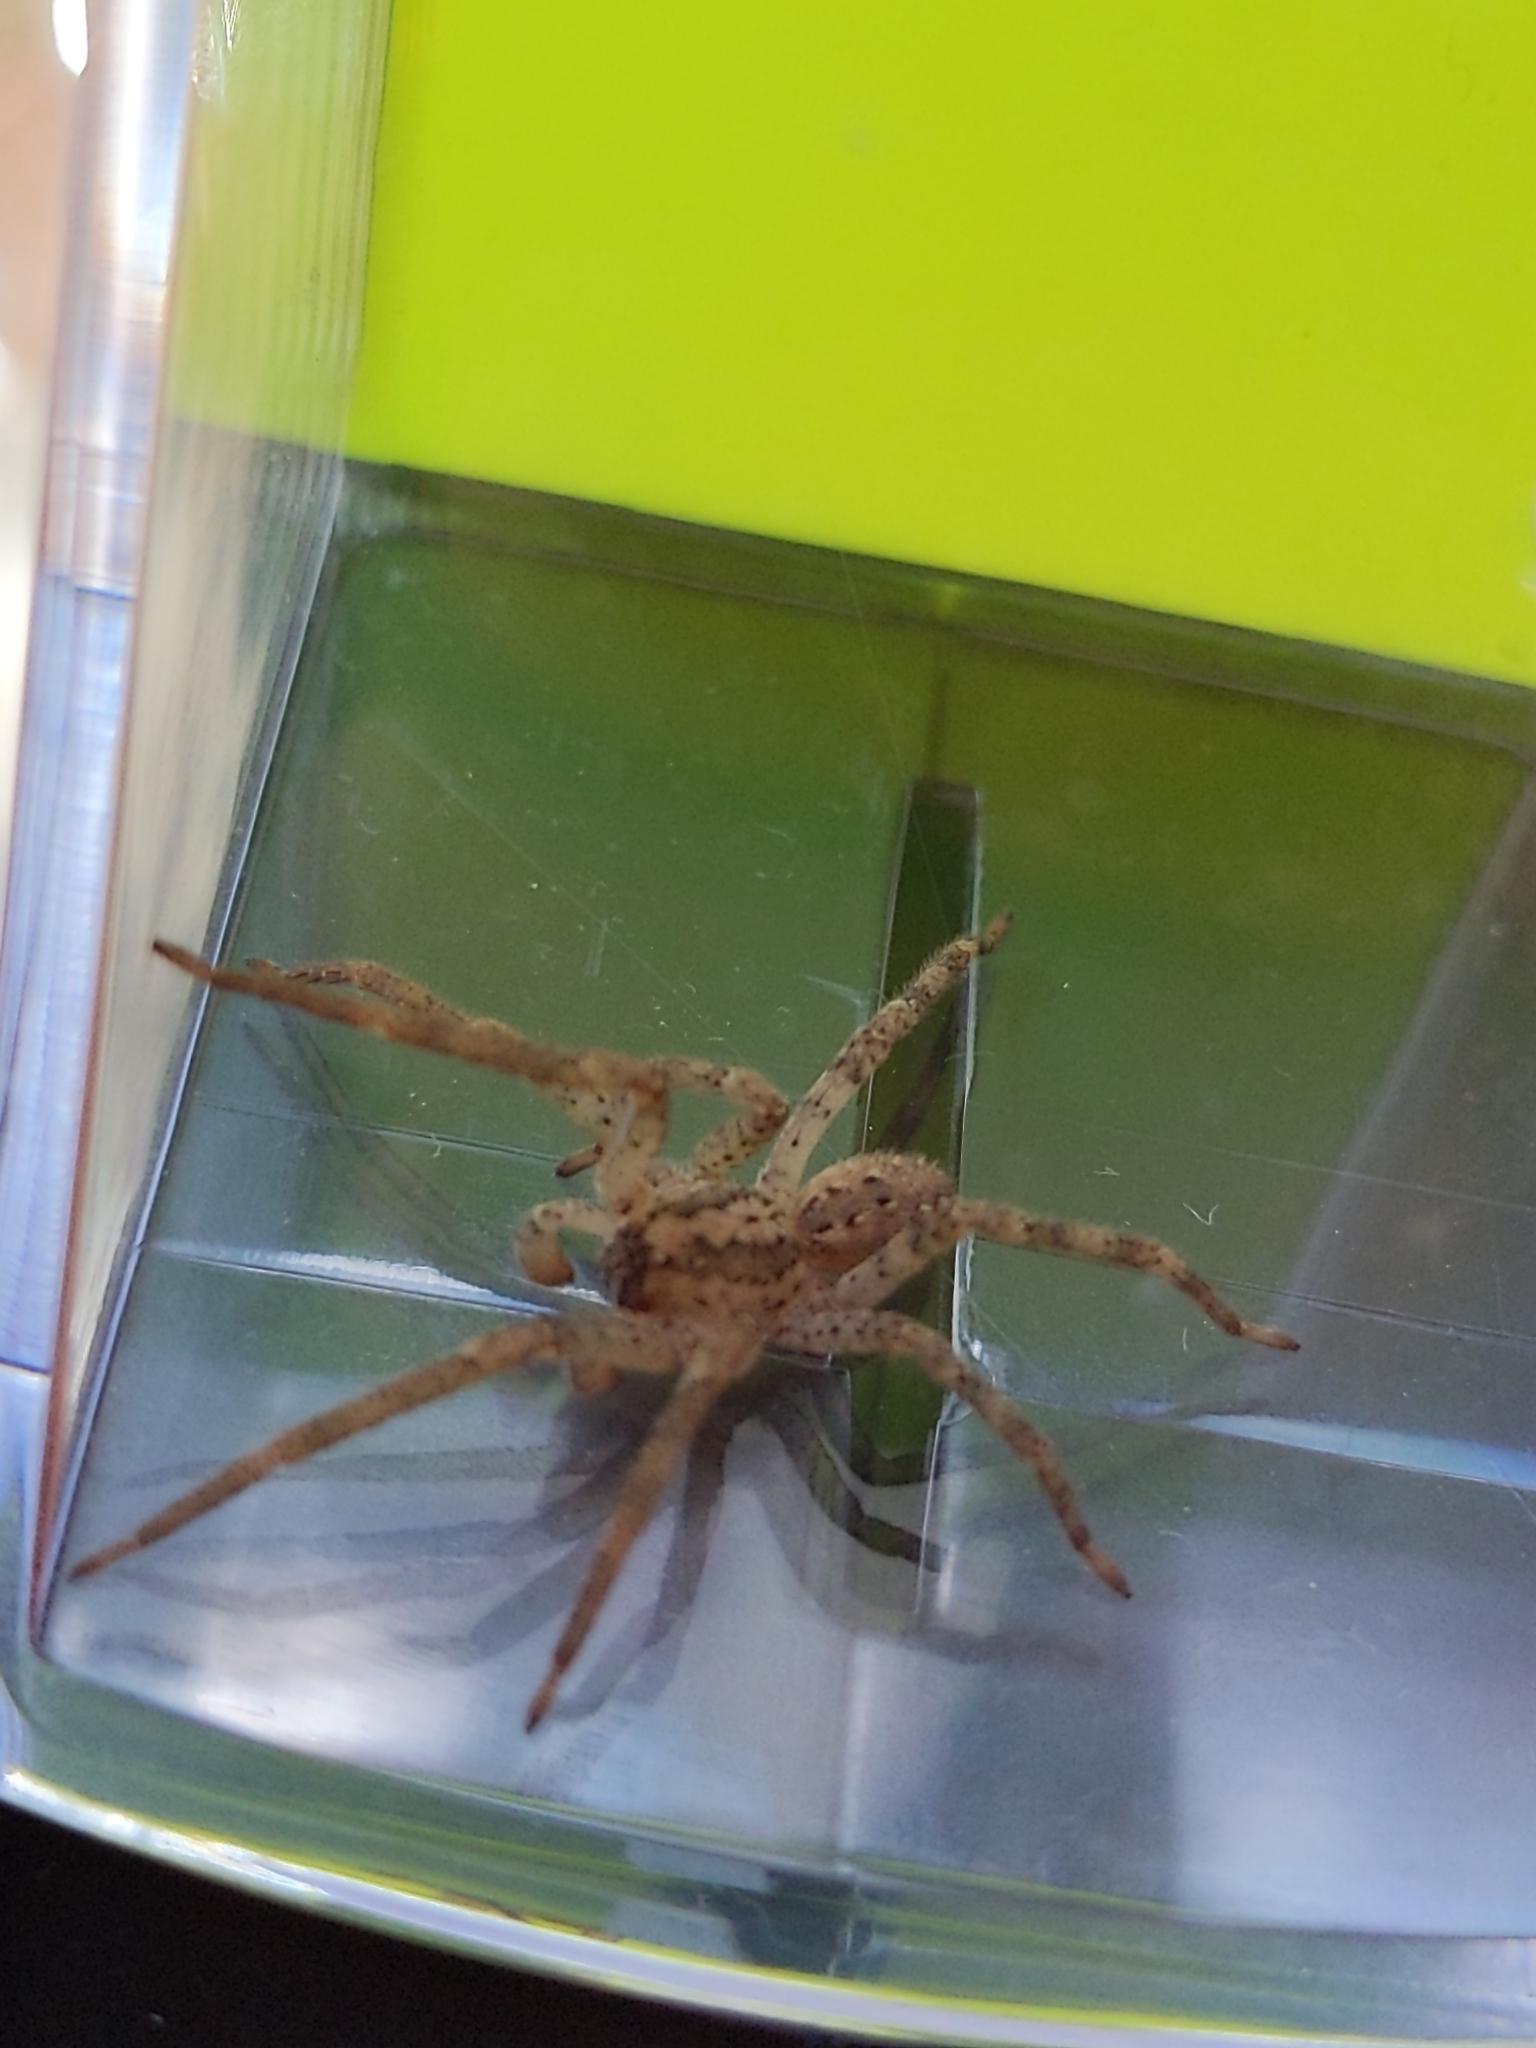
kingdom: Animalia
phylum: Arthropoda
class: Arachnida
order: Araneae
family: Zoropsidae
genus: Zoropsis
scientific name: Zoropsis spinimana
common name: Zoropsid spider
